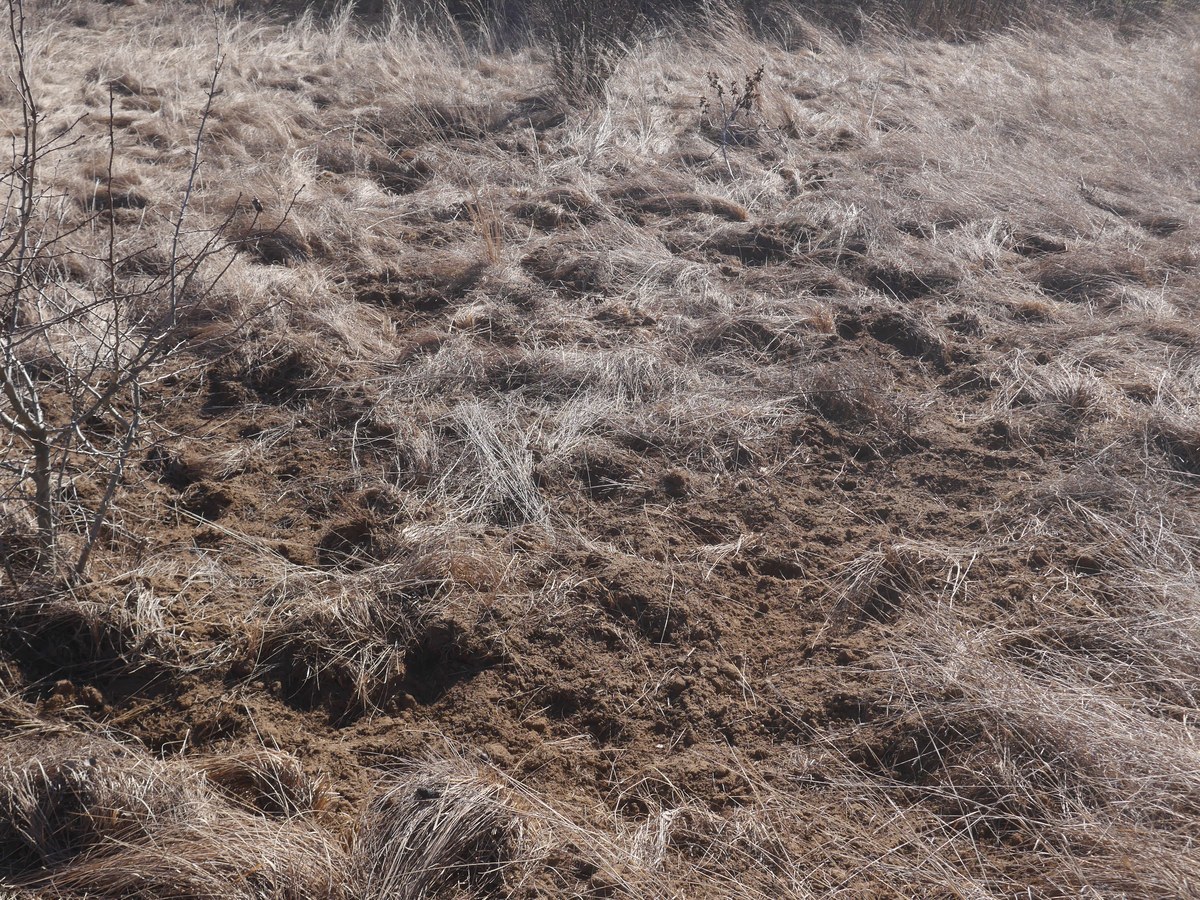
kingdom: Animalia
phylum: Chordata
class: Mammalia
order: Artiodactyla
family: Suidae
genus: Sus
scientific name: Sus scrofa
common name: Wild boar
